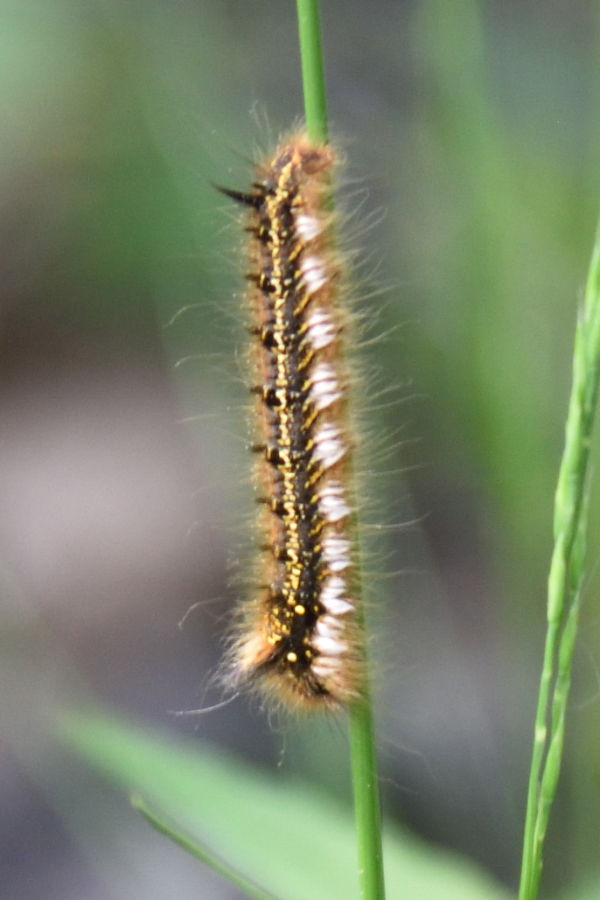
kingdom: Animalia
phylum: Arthropoda
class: Insecta
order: Lepidoptera
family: Lasiocampidae
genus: Euthrix
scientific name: Euthrix potatoria
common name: Drinker
